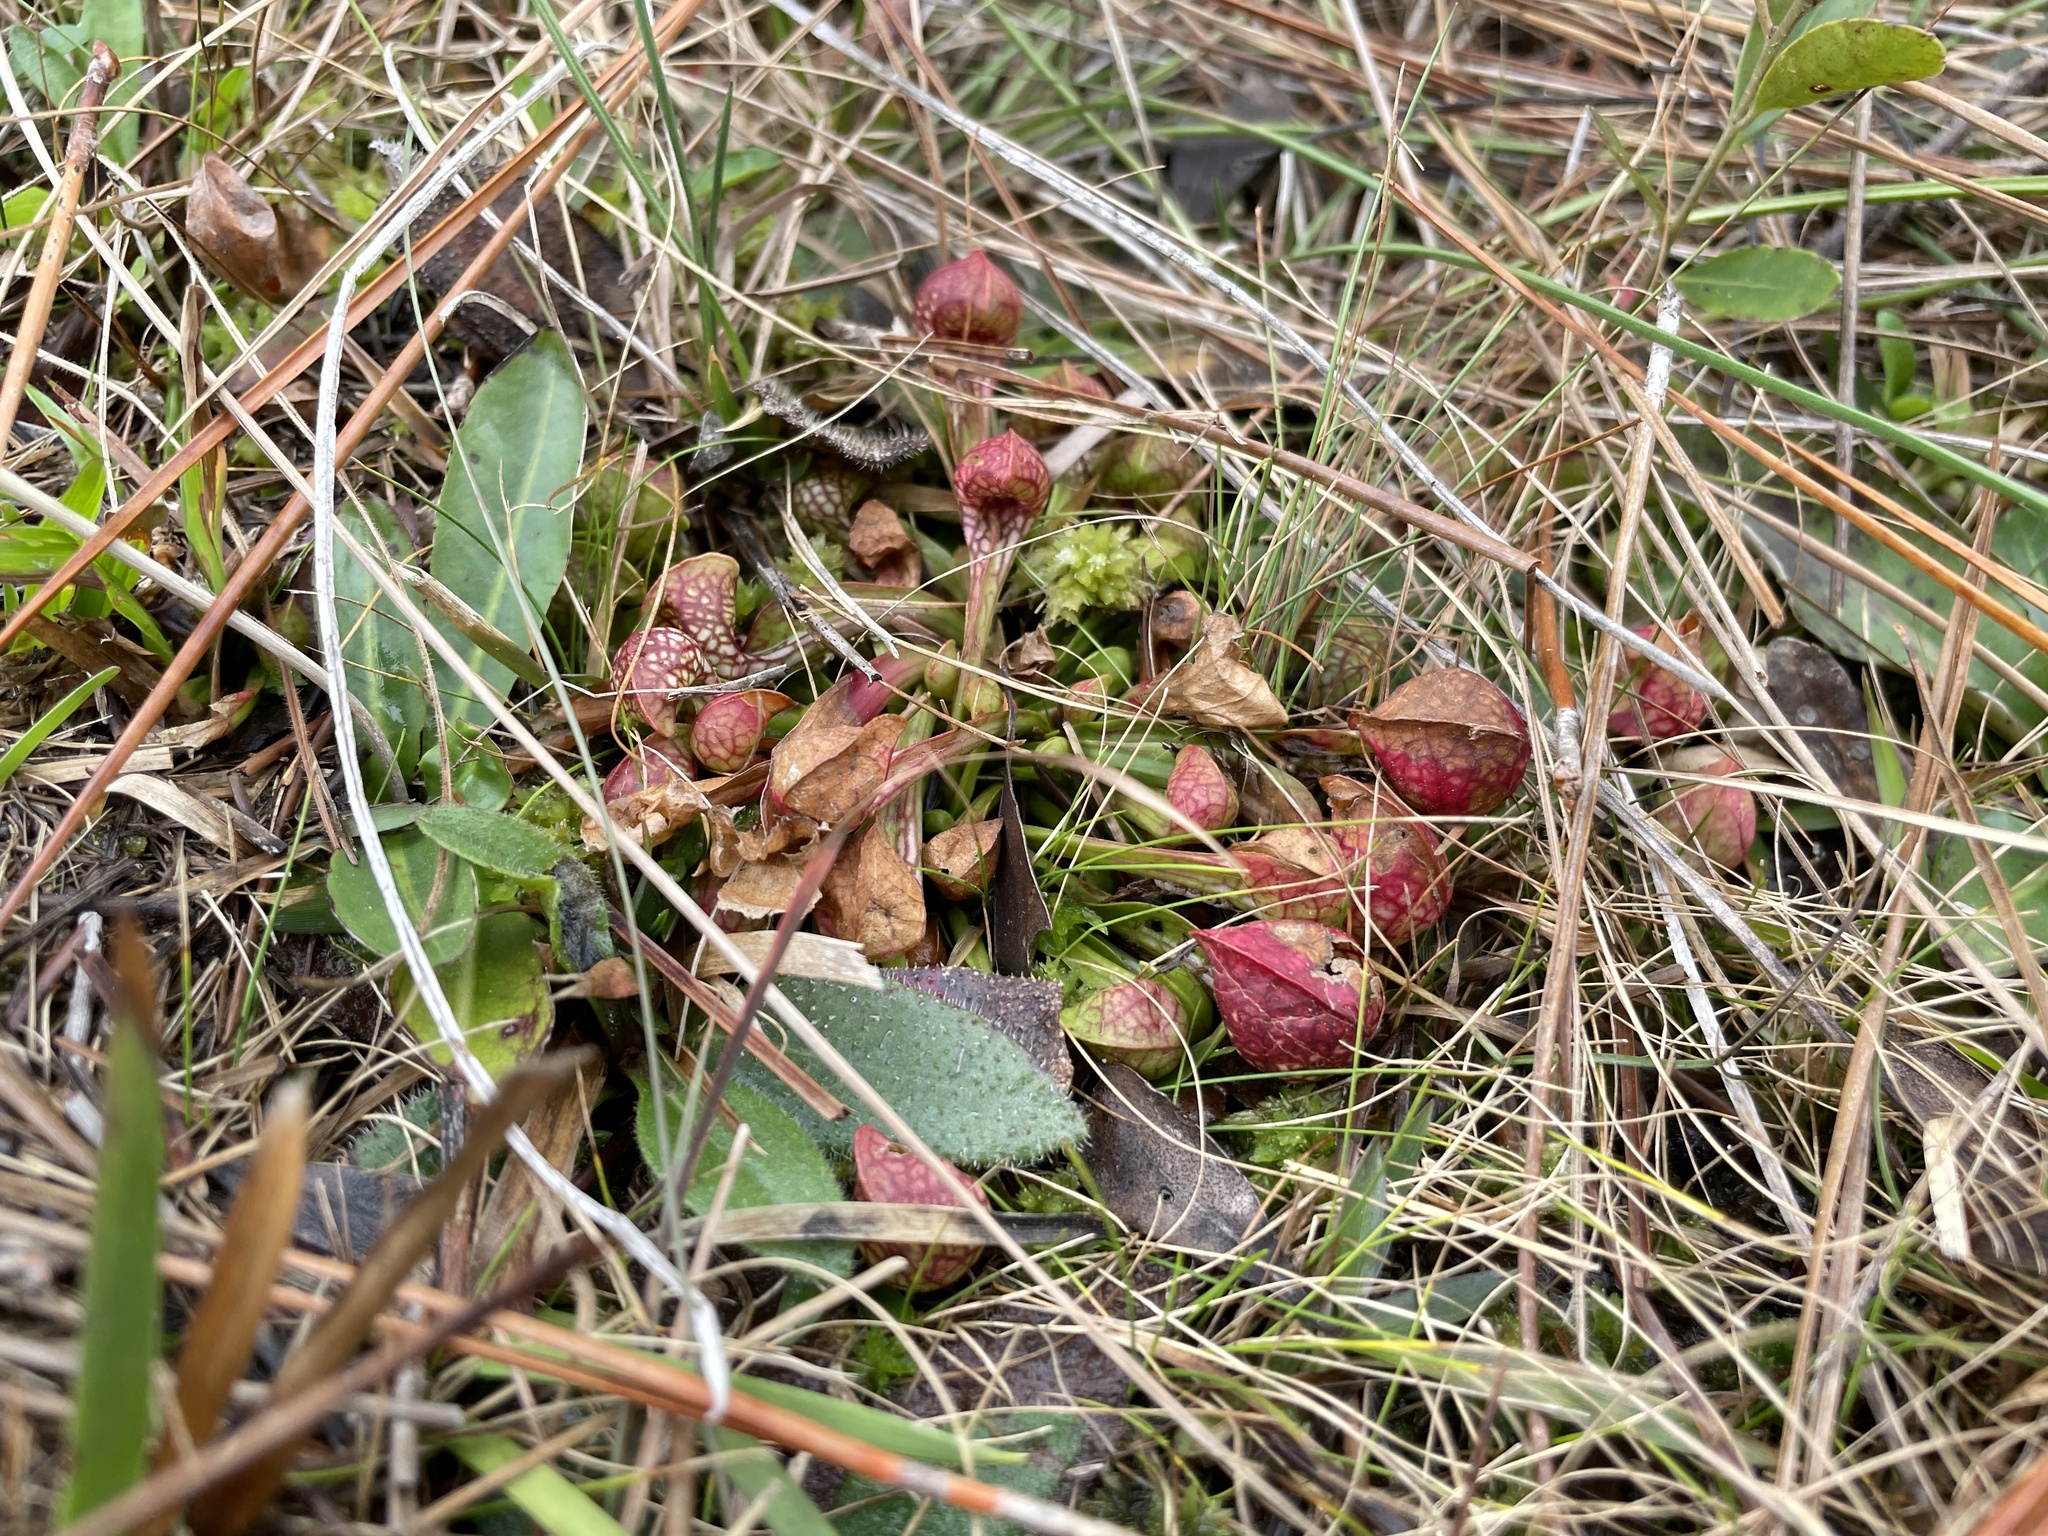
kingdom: Plantae
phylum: Tracheophyta
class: Magnoliopsida
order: Ericales
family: Sarraceniaceae
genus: Sarracenia
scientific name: Sarracenia psittacina
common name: Parrot pitcherplant
